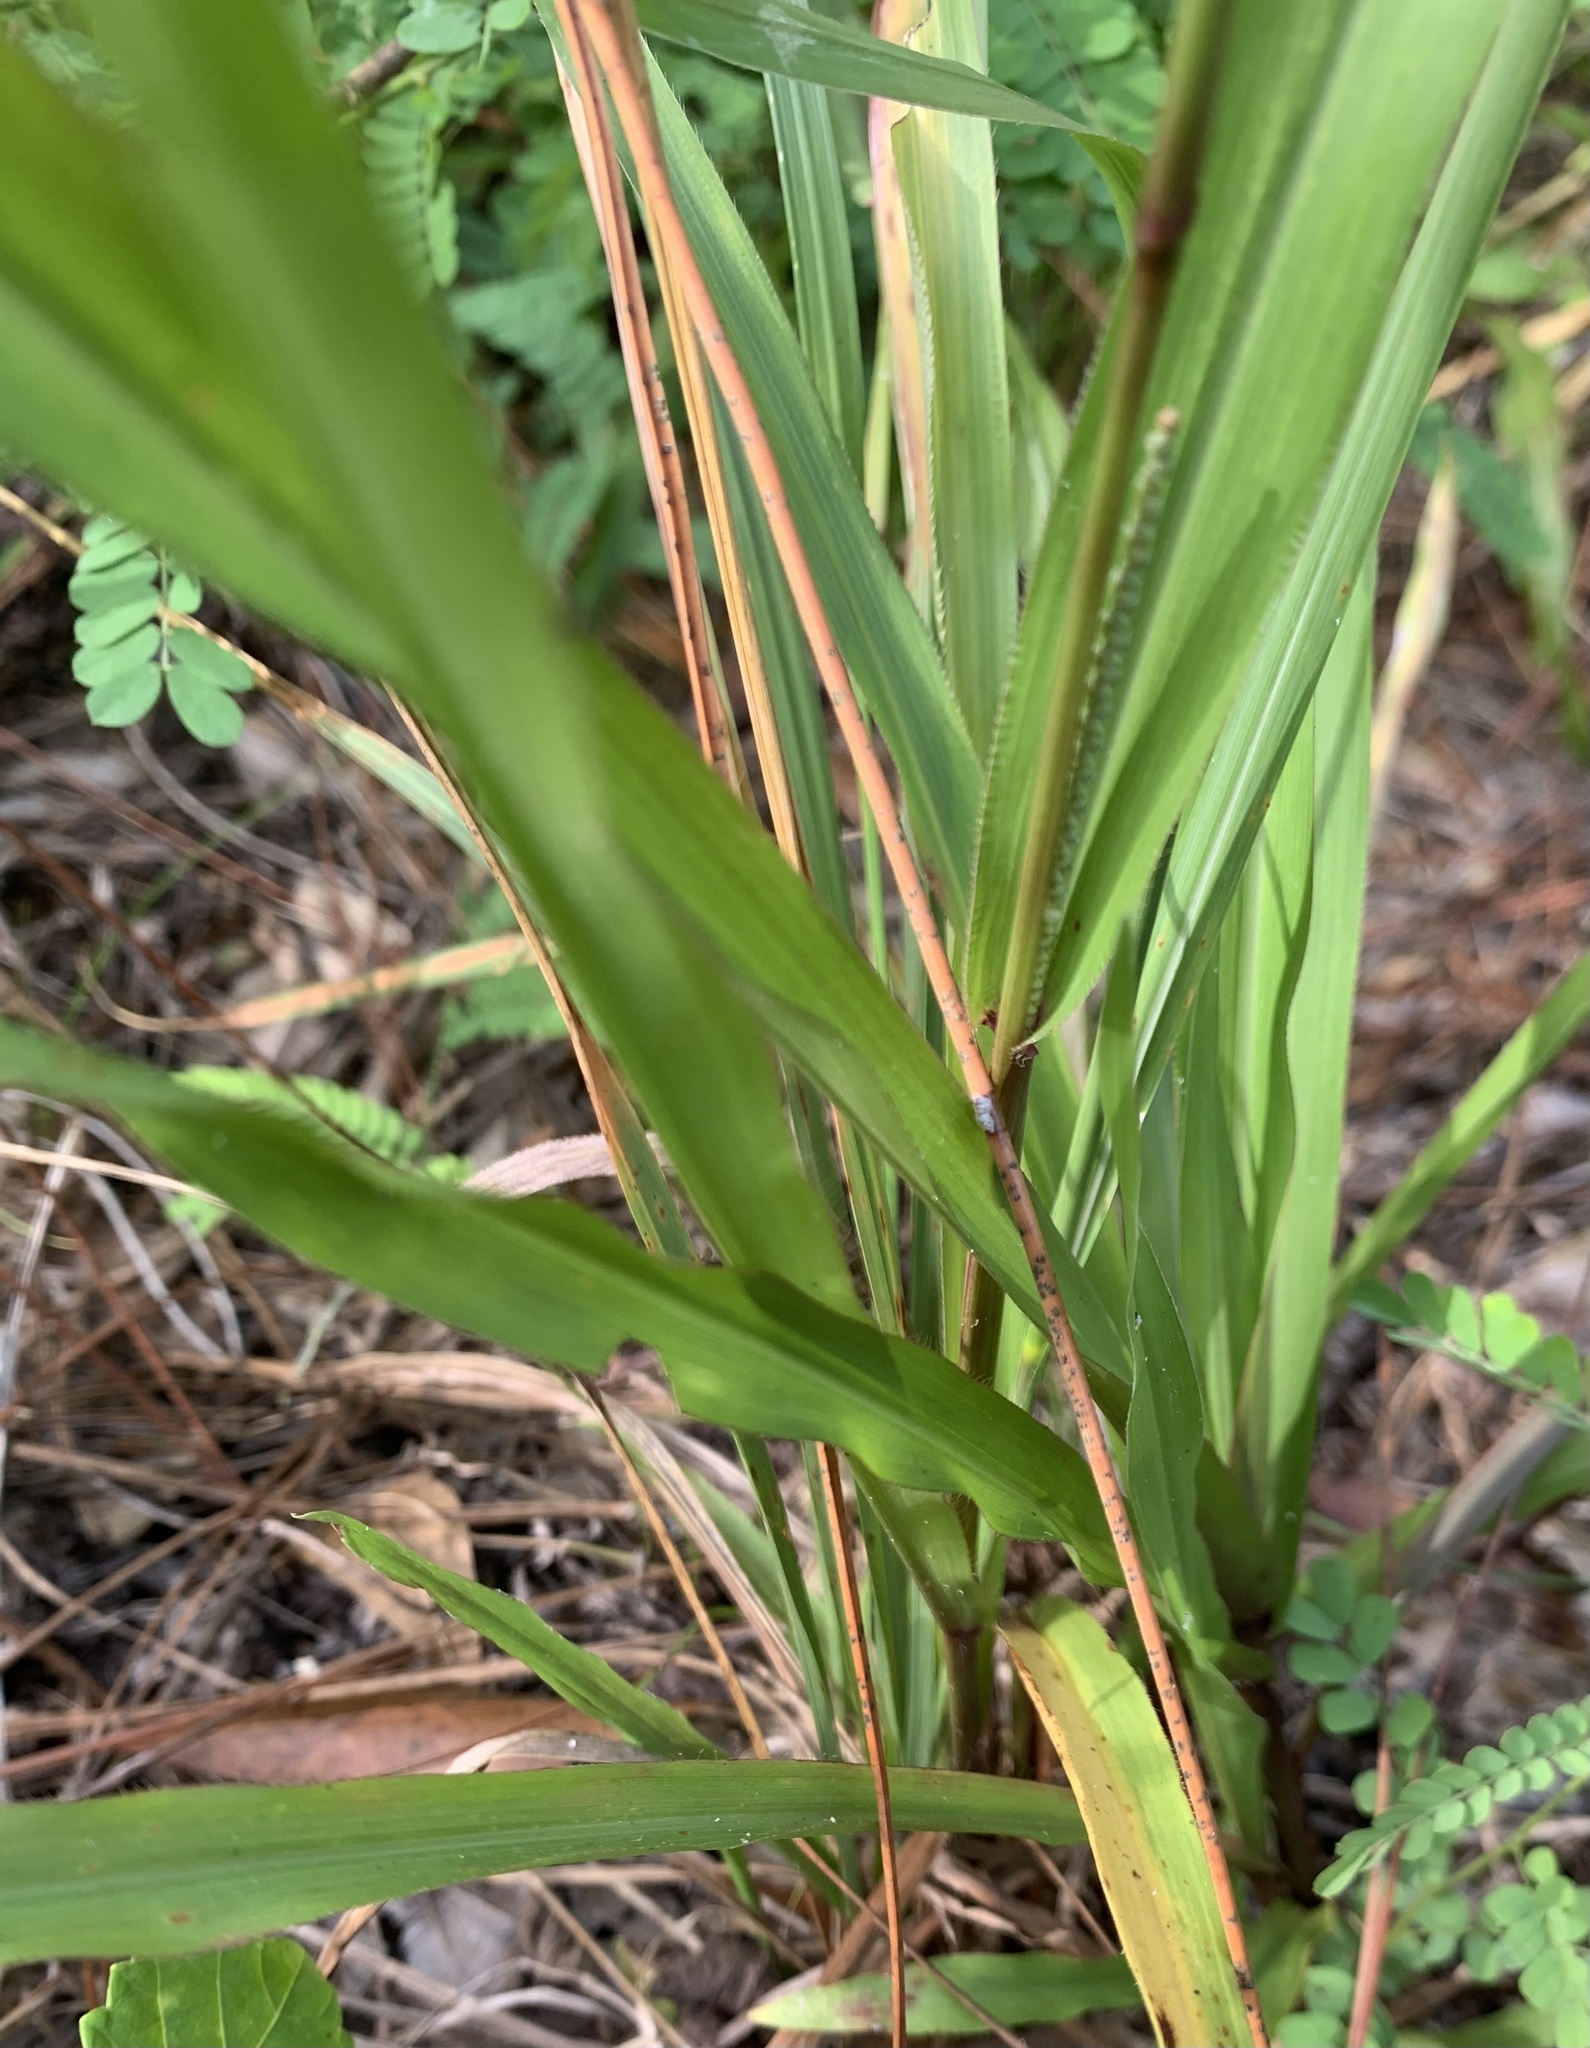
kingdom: Plantae
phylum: Tracheophyta
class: Liliopsida
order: Poales
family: Poaceae
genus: Paspalum
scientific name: Paspalum setaceum
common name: Slender paspalum
